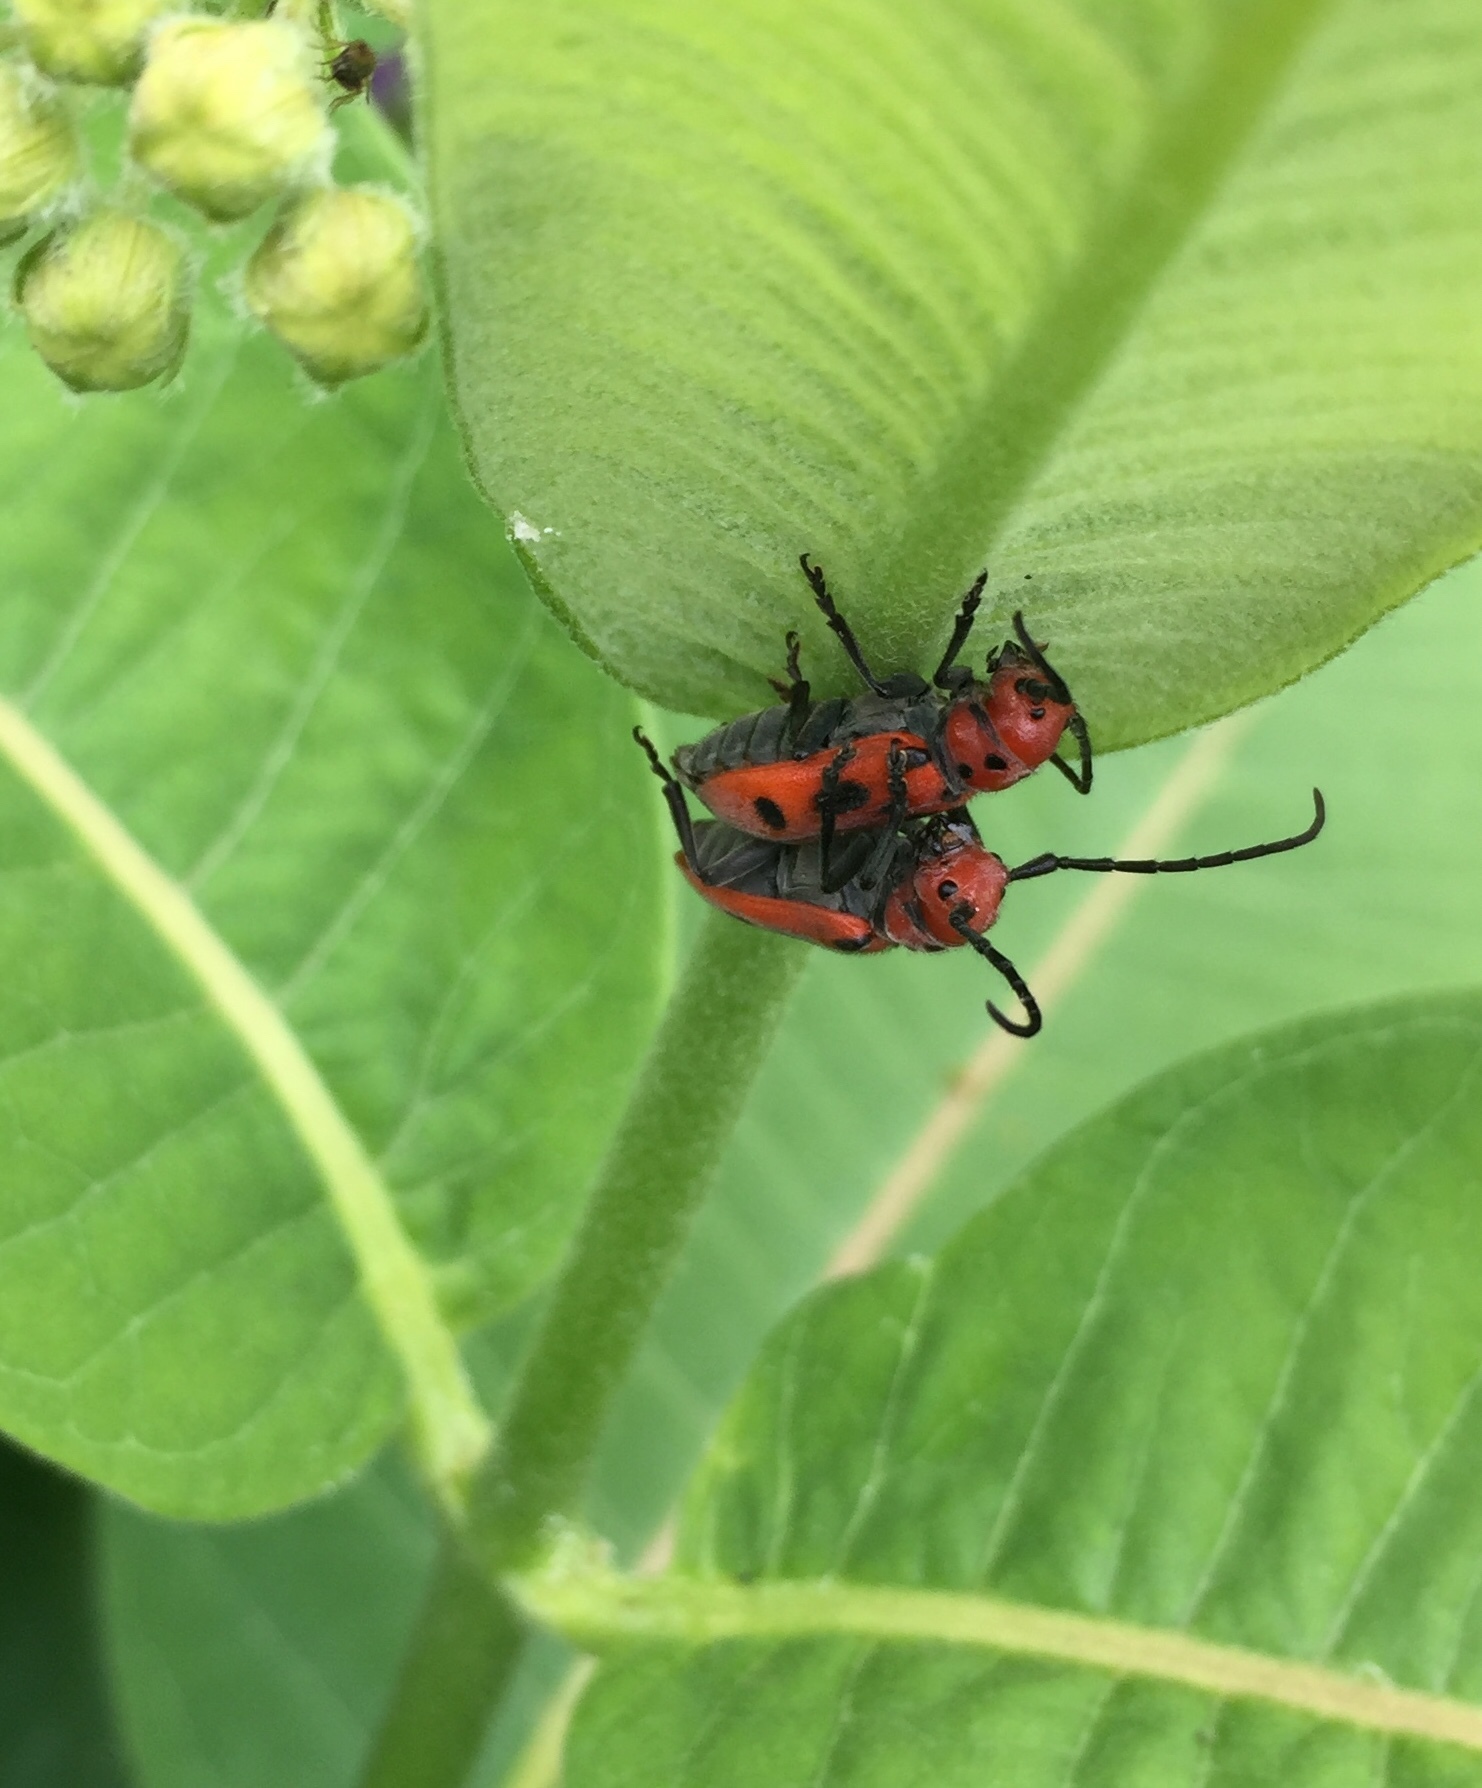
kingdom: Animalia
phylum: Arthropoda
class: Insecta
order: Coleoptera
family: Cerambycidae
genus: Tetraopes
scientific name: Tetraopes tetrophthalmus
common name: Red milkweed beetle
